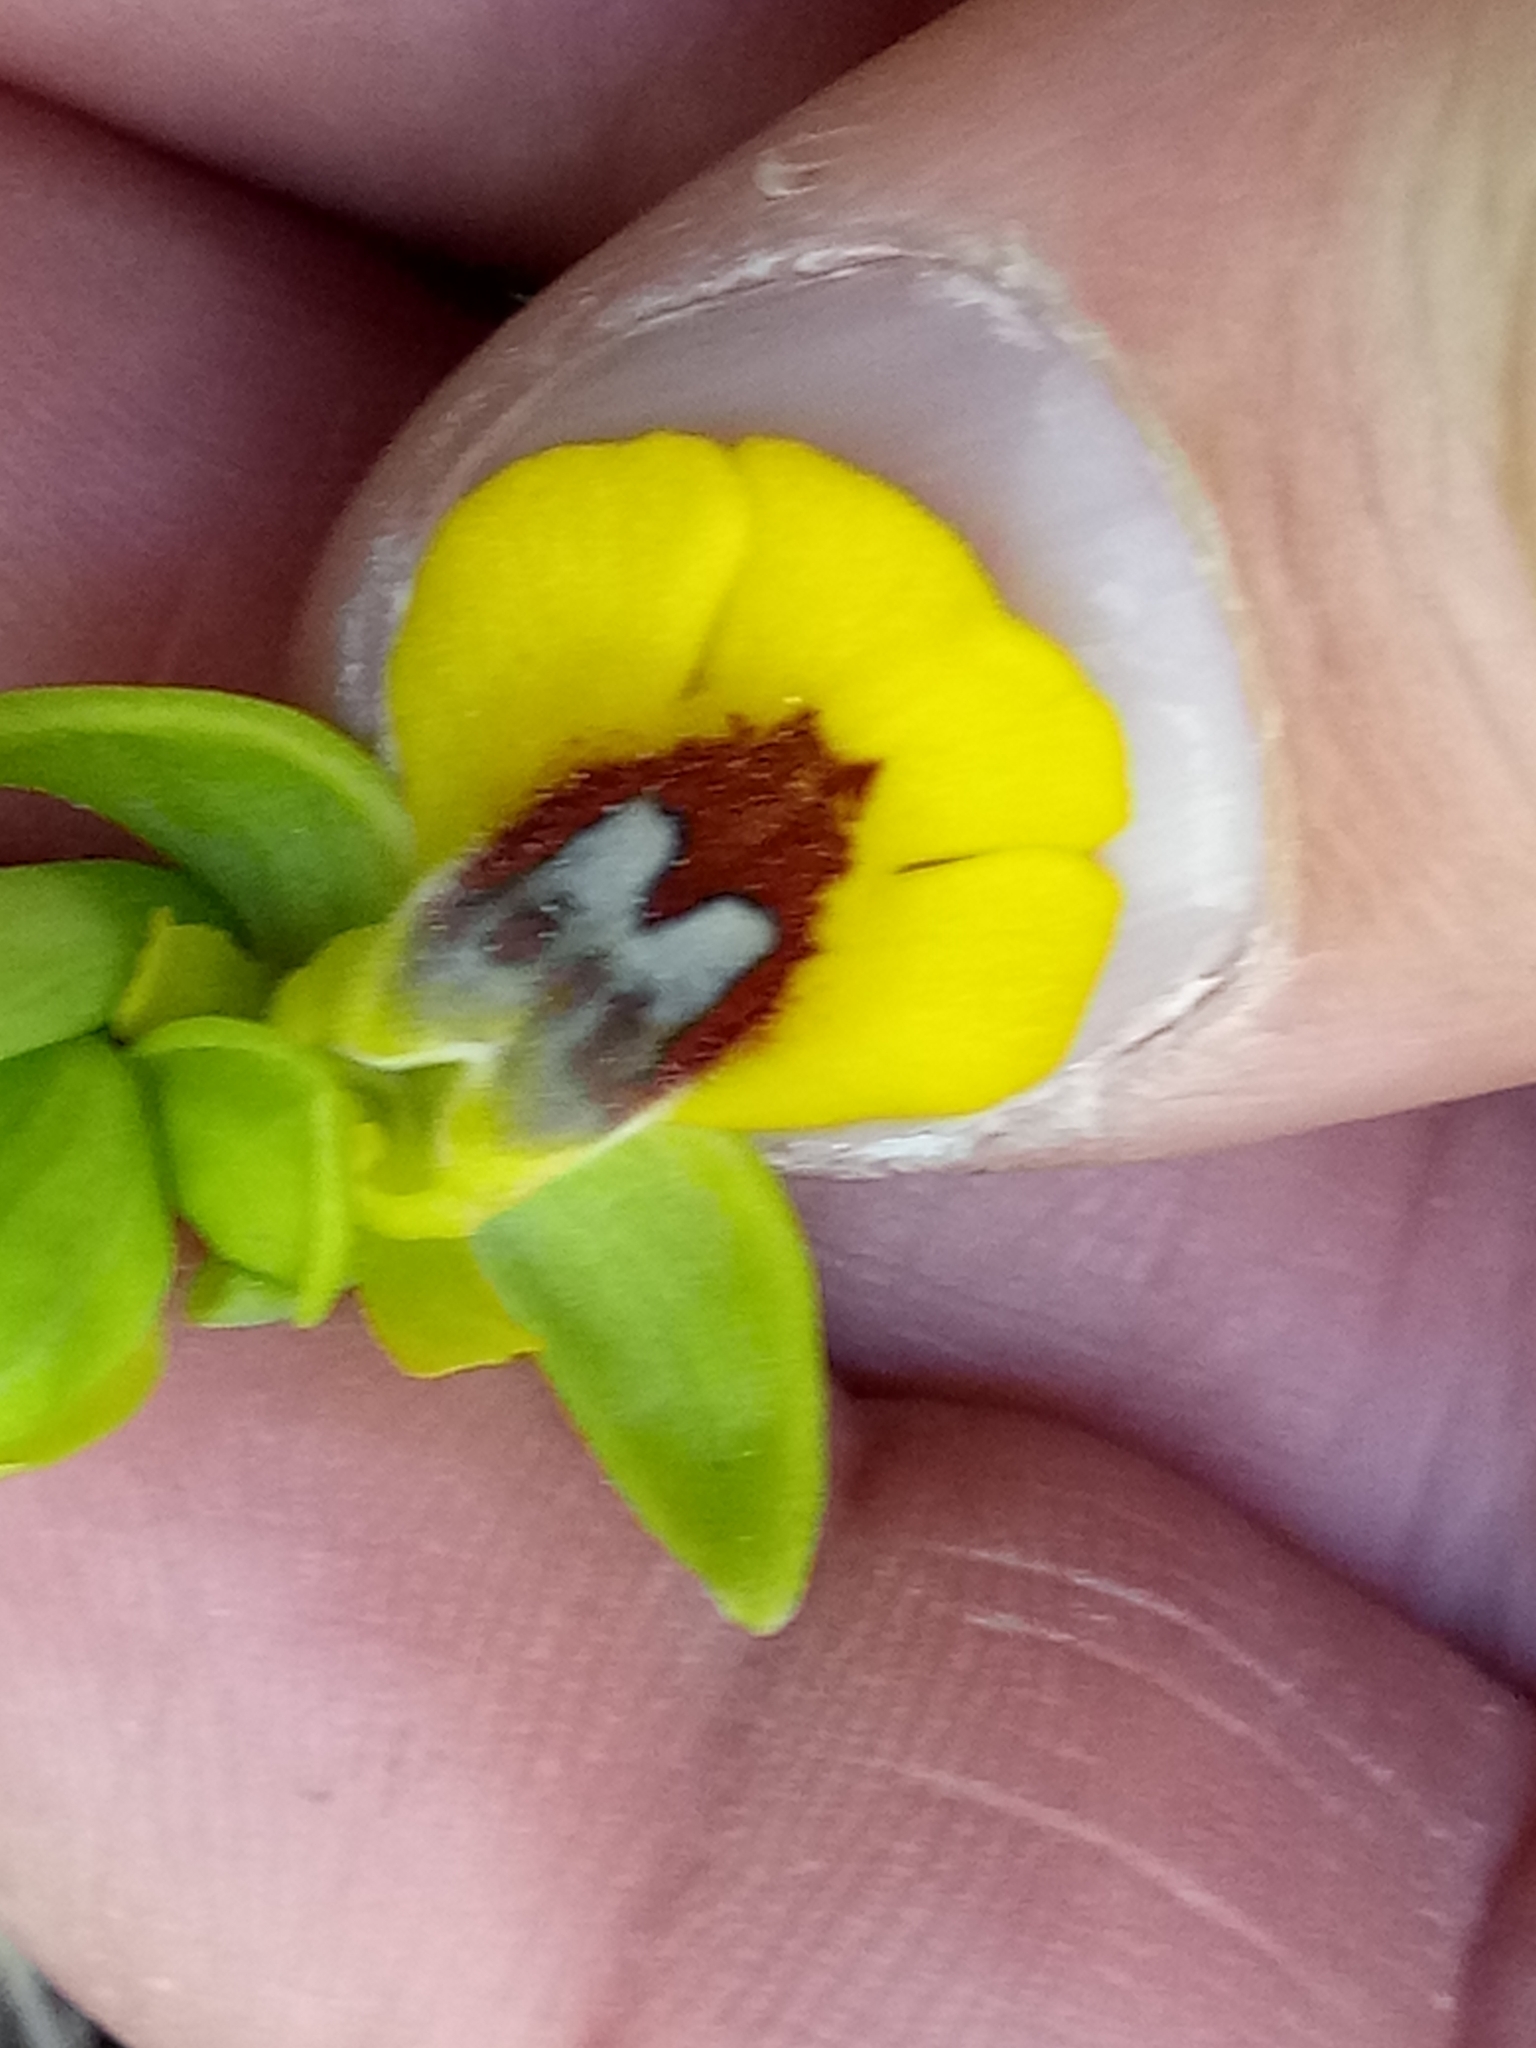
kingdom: Plantae
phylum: Tracheophyta
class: Liliopsida
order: Asparagales
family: Orchidaceae
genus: Ophrys
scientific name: Ophrys lutea
